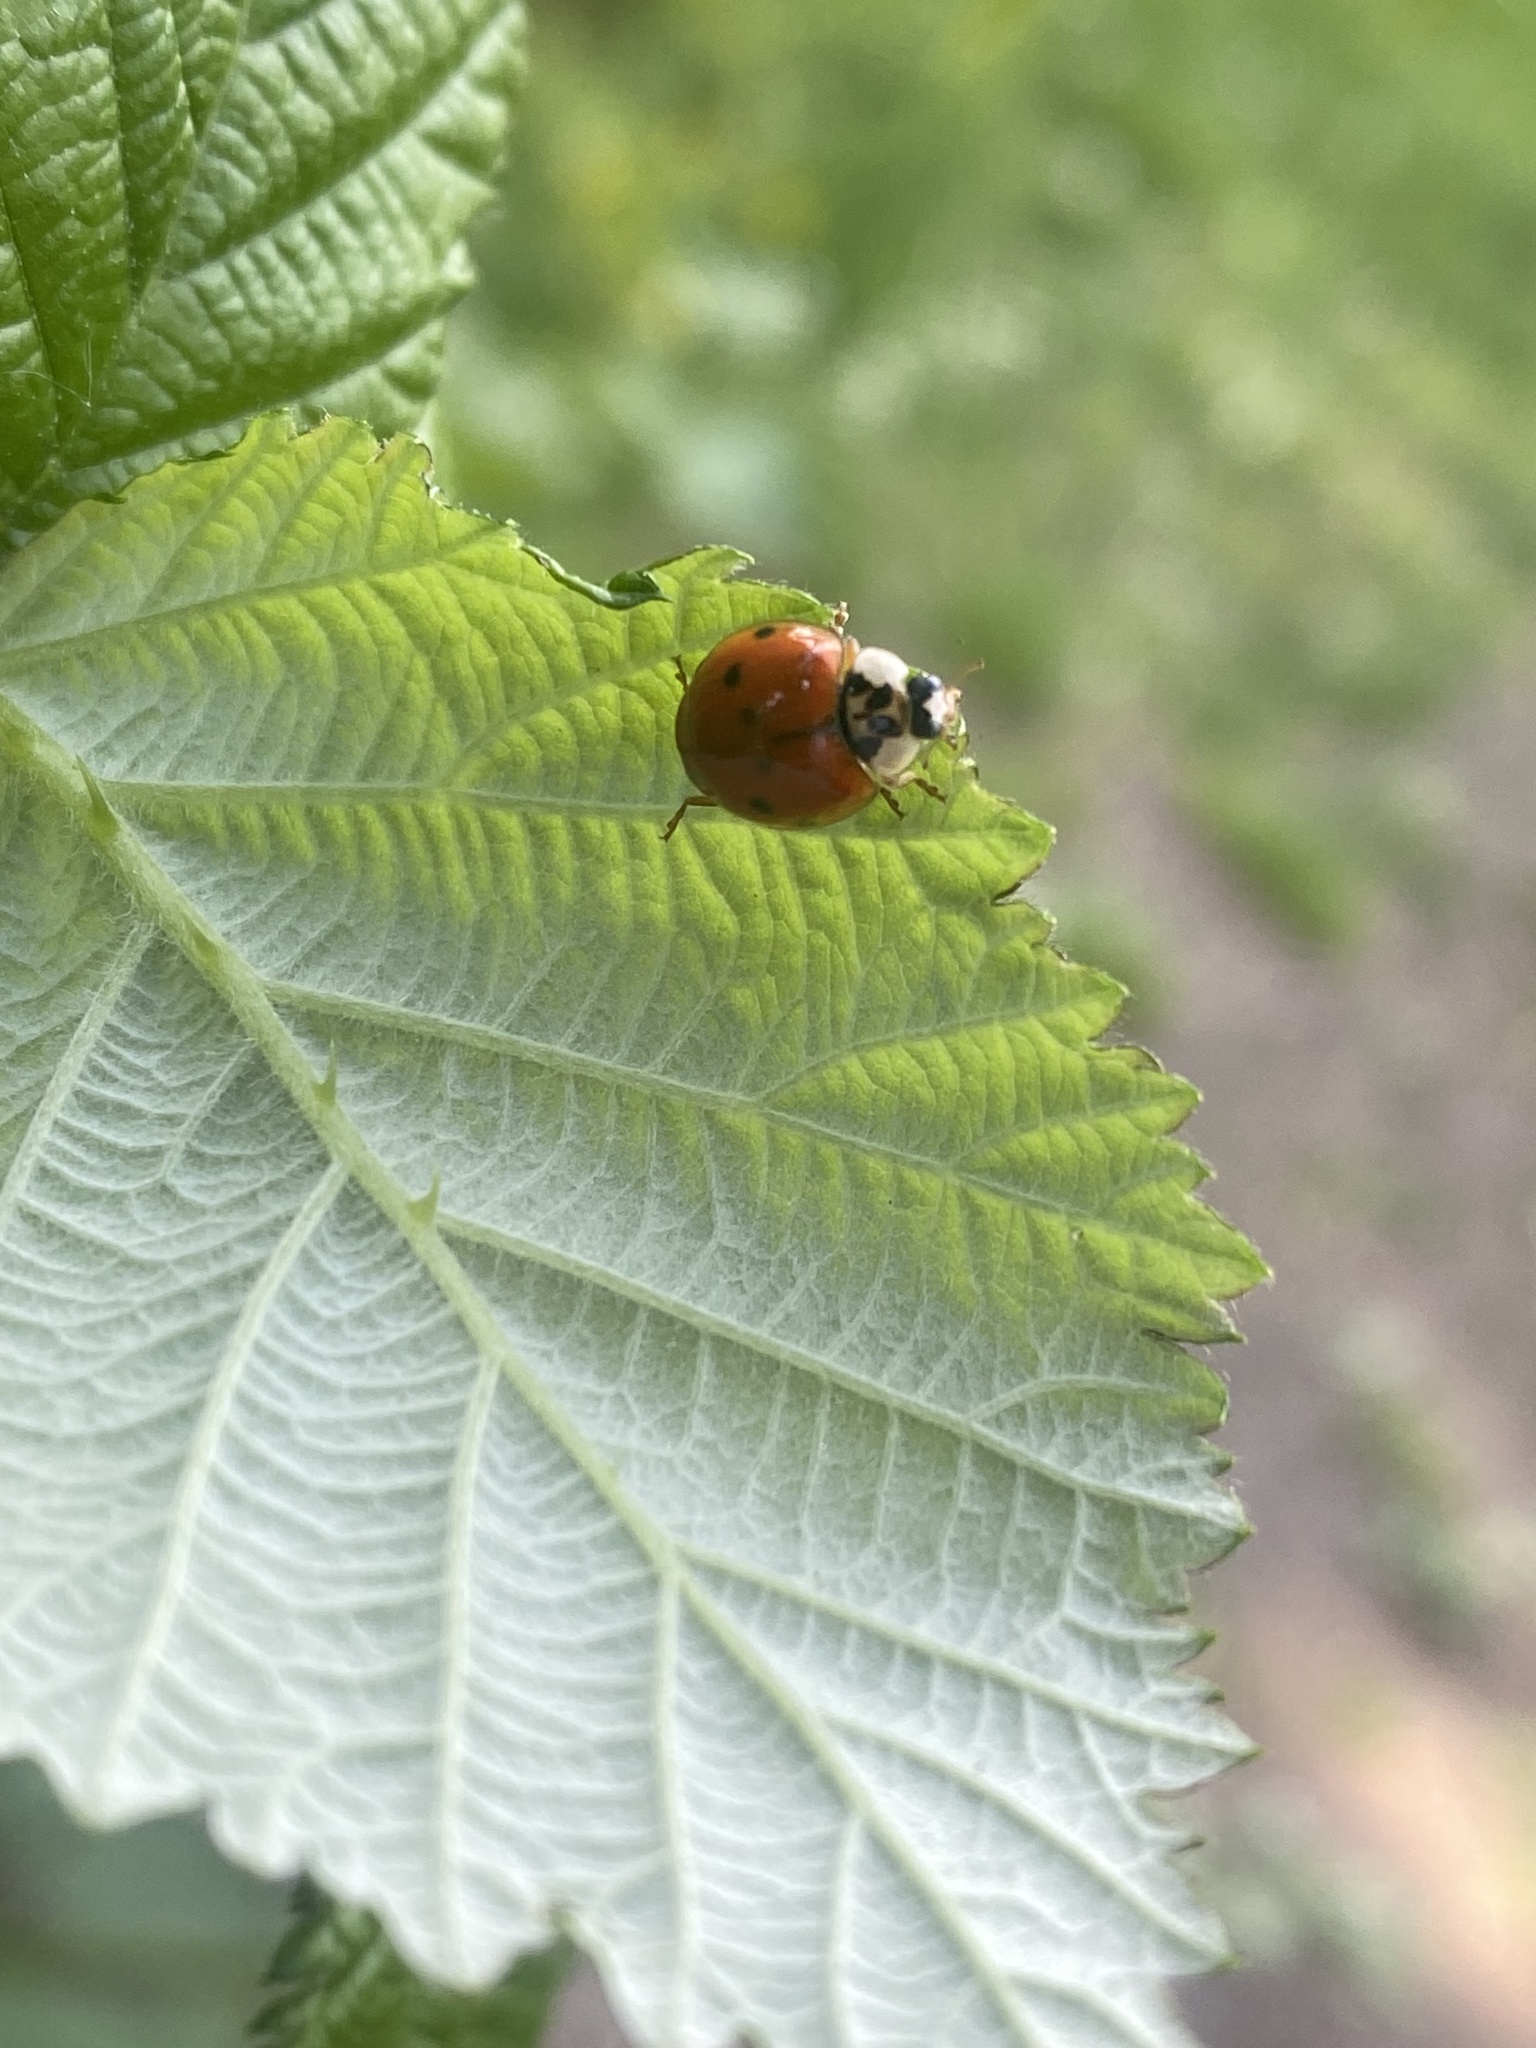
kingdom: Animalia
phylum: Arthropoda
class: Insecta
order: Coleoptera
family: Coccinellidae
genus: Harmonia
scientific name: Harmonia axyridis
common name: Harlequin ladybird
